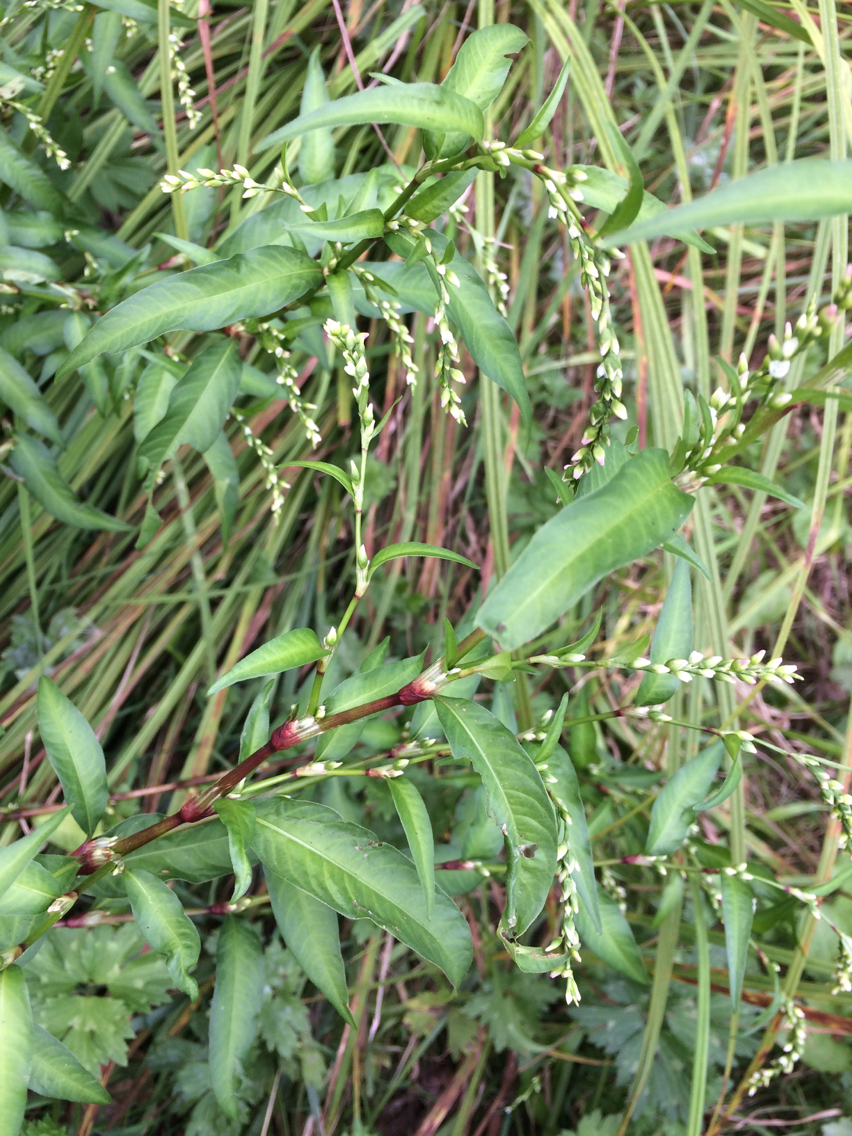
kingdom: Plantae
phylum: Tracheophyta
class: Magnoliopsida
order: Caryophyllales
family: Polygonaceae
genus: Persicaria
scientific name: Persicaria hydropiper
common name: Water-pepper
